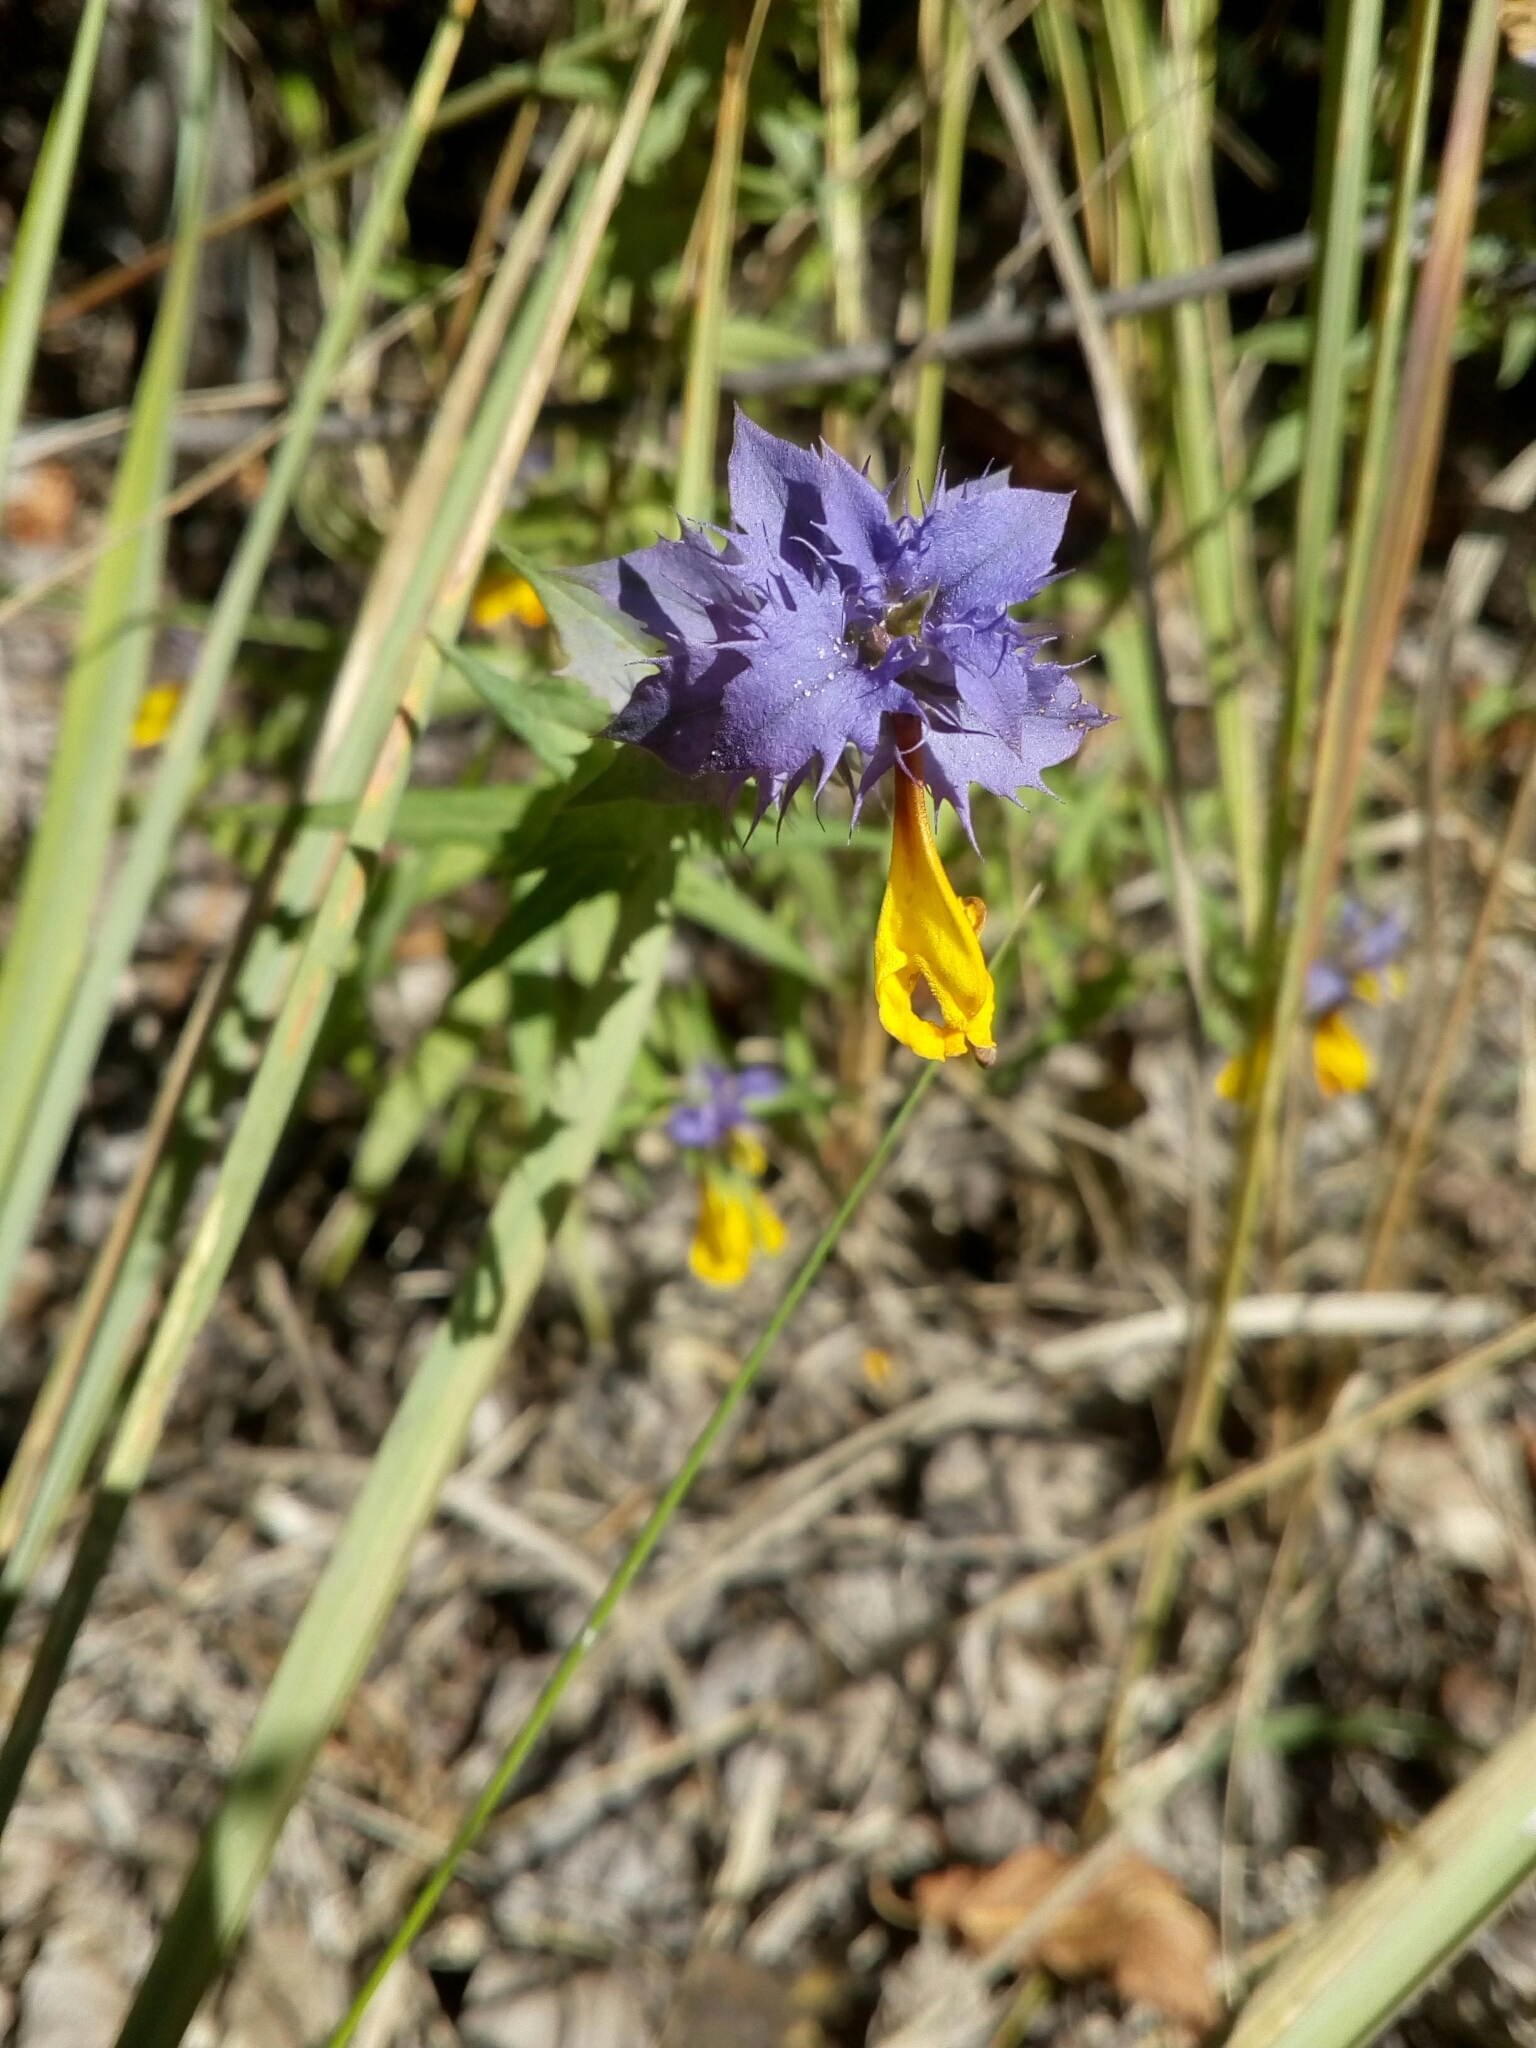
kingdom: Plantae
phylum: Tracheophyta
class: Magnoliopsida
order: Lamiales
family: Orobanchaceae
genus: Melampyrum
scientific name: Melampyrum nemorosum
